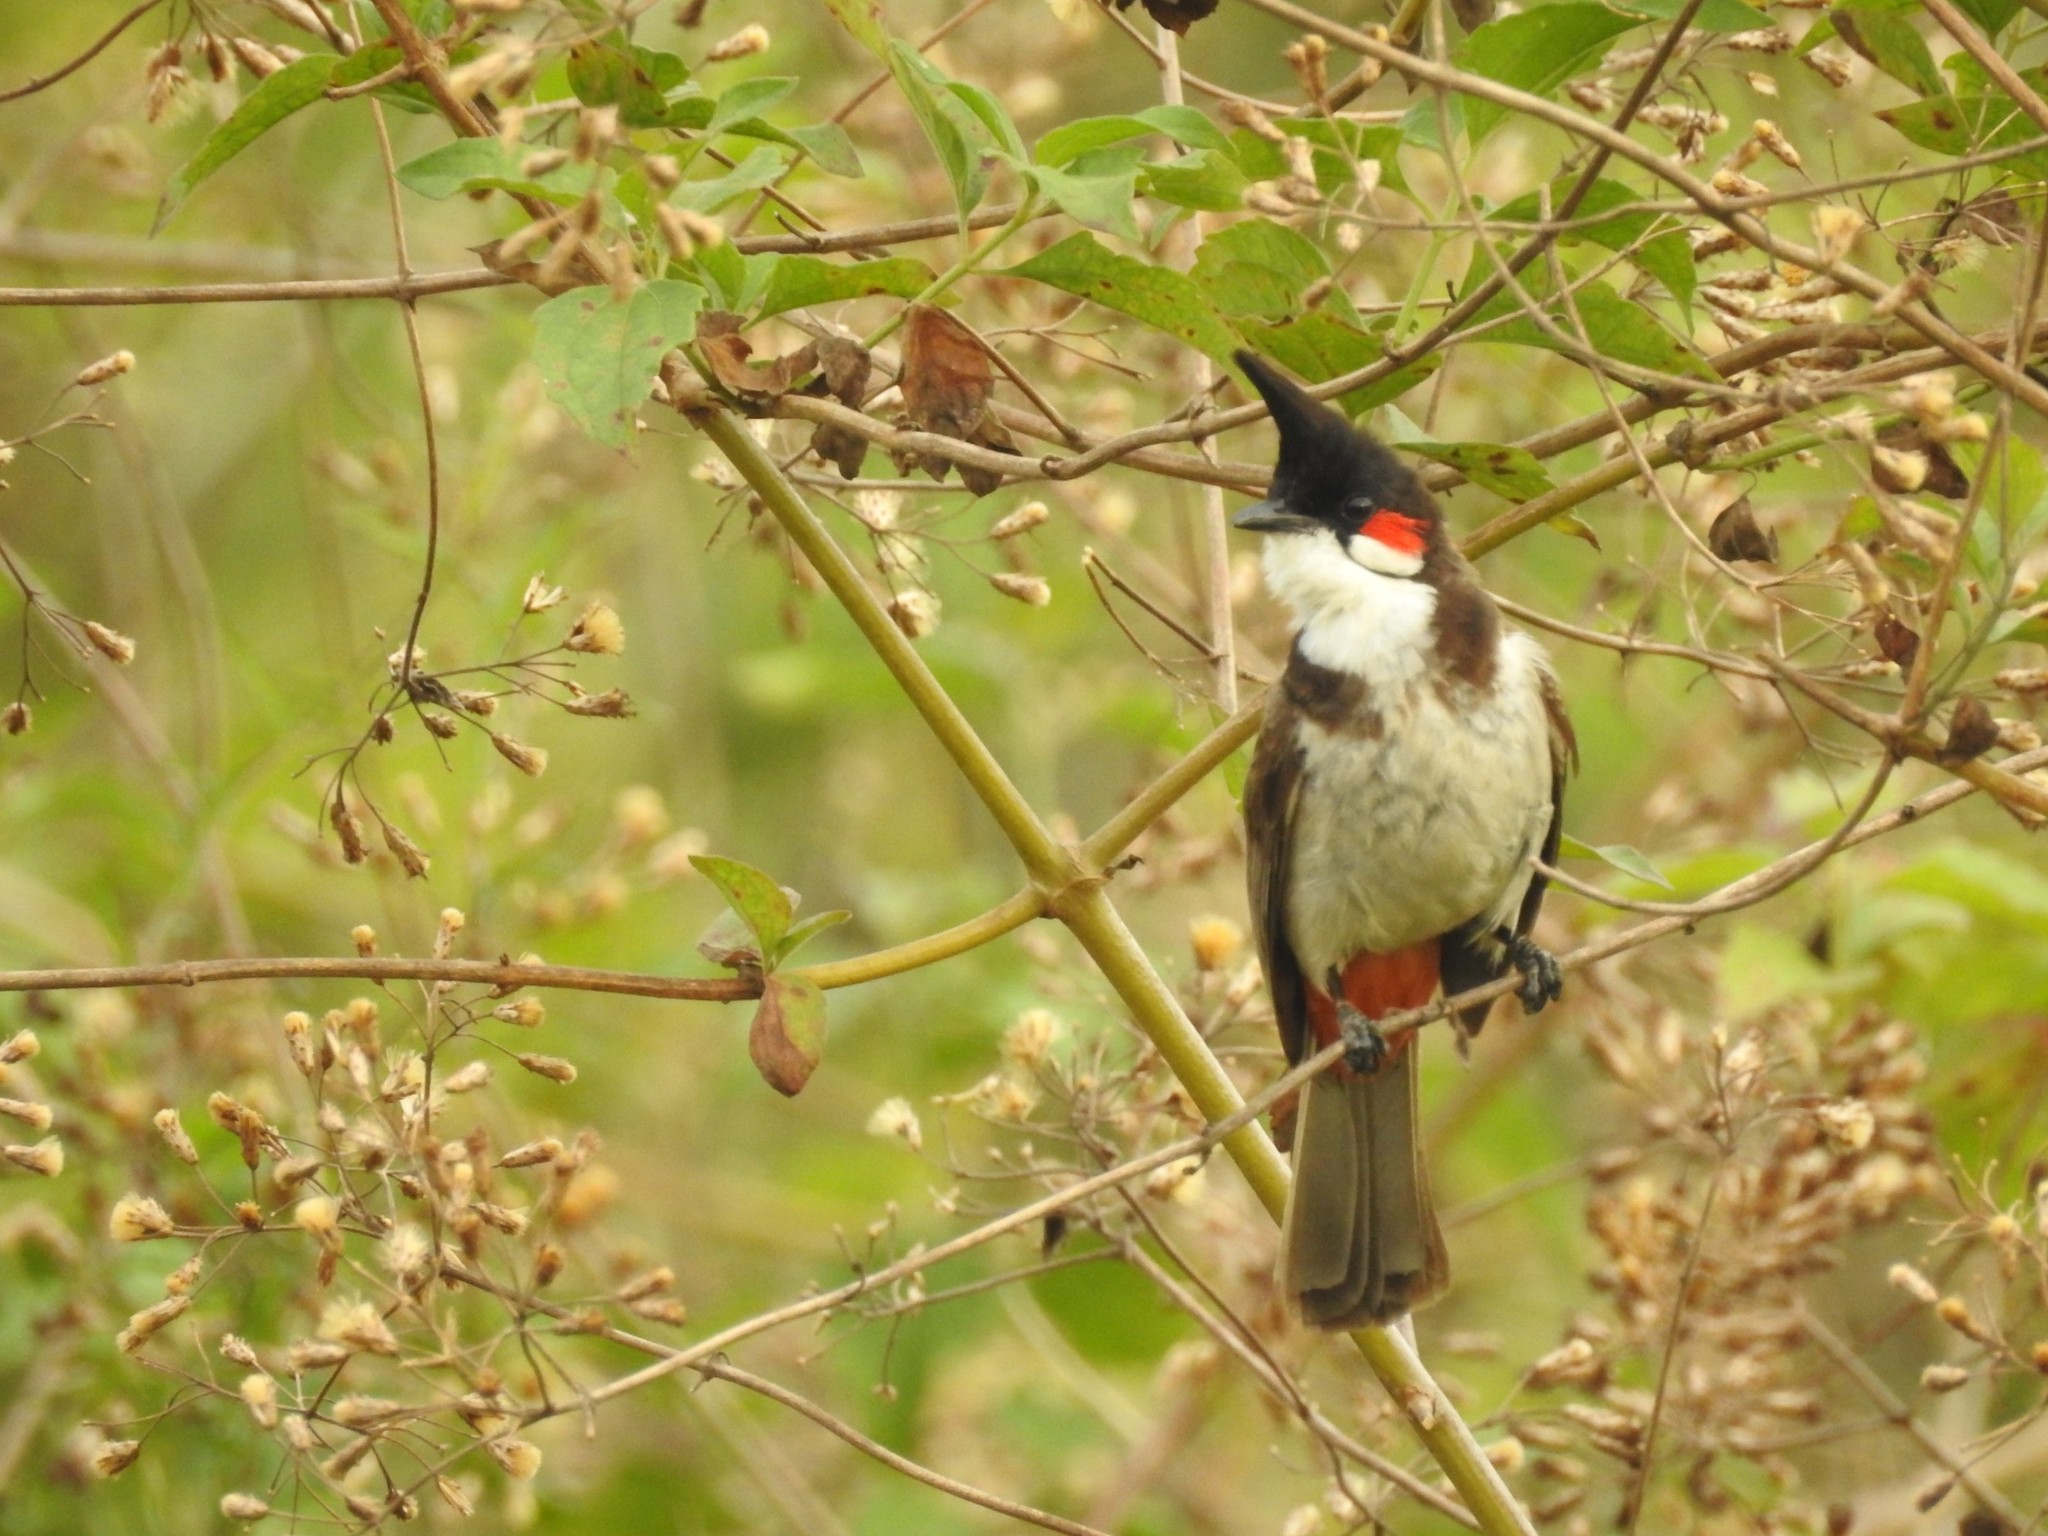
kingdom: Animalia
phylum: Chordata
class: Aves
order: Passeriformes
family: Pycnonotidae
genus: Pycnonotus
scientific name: Pycnonotus jocosus
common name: Red-whiskered bulbul
